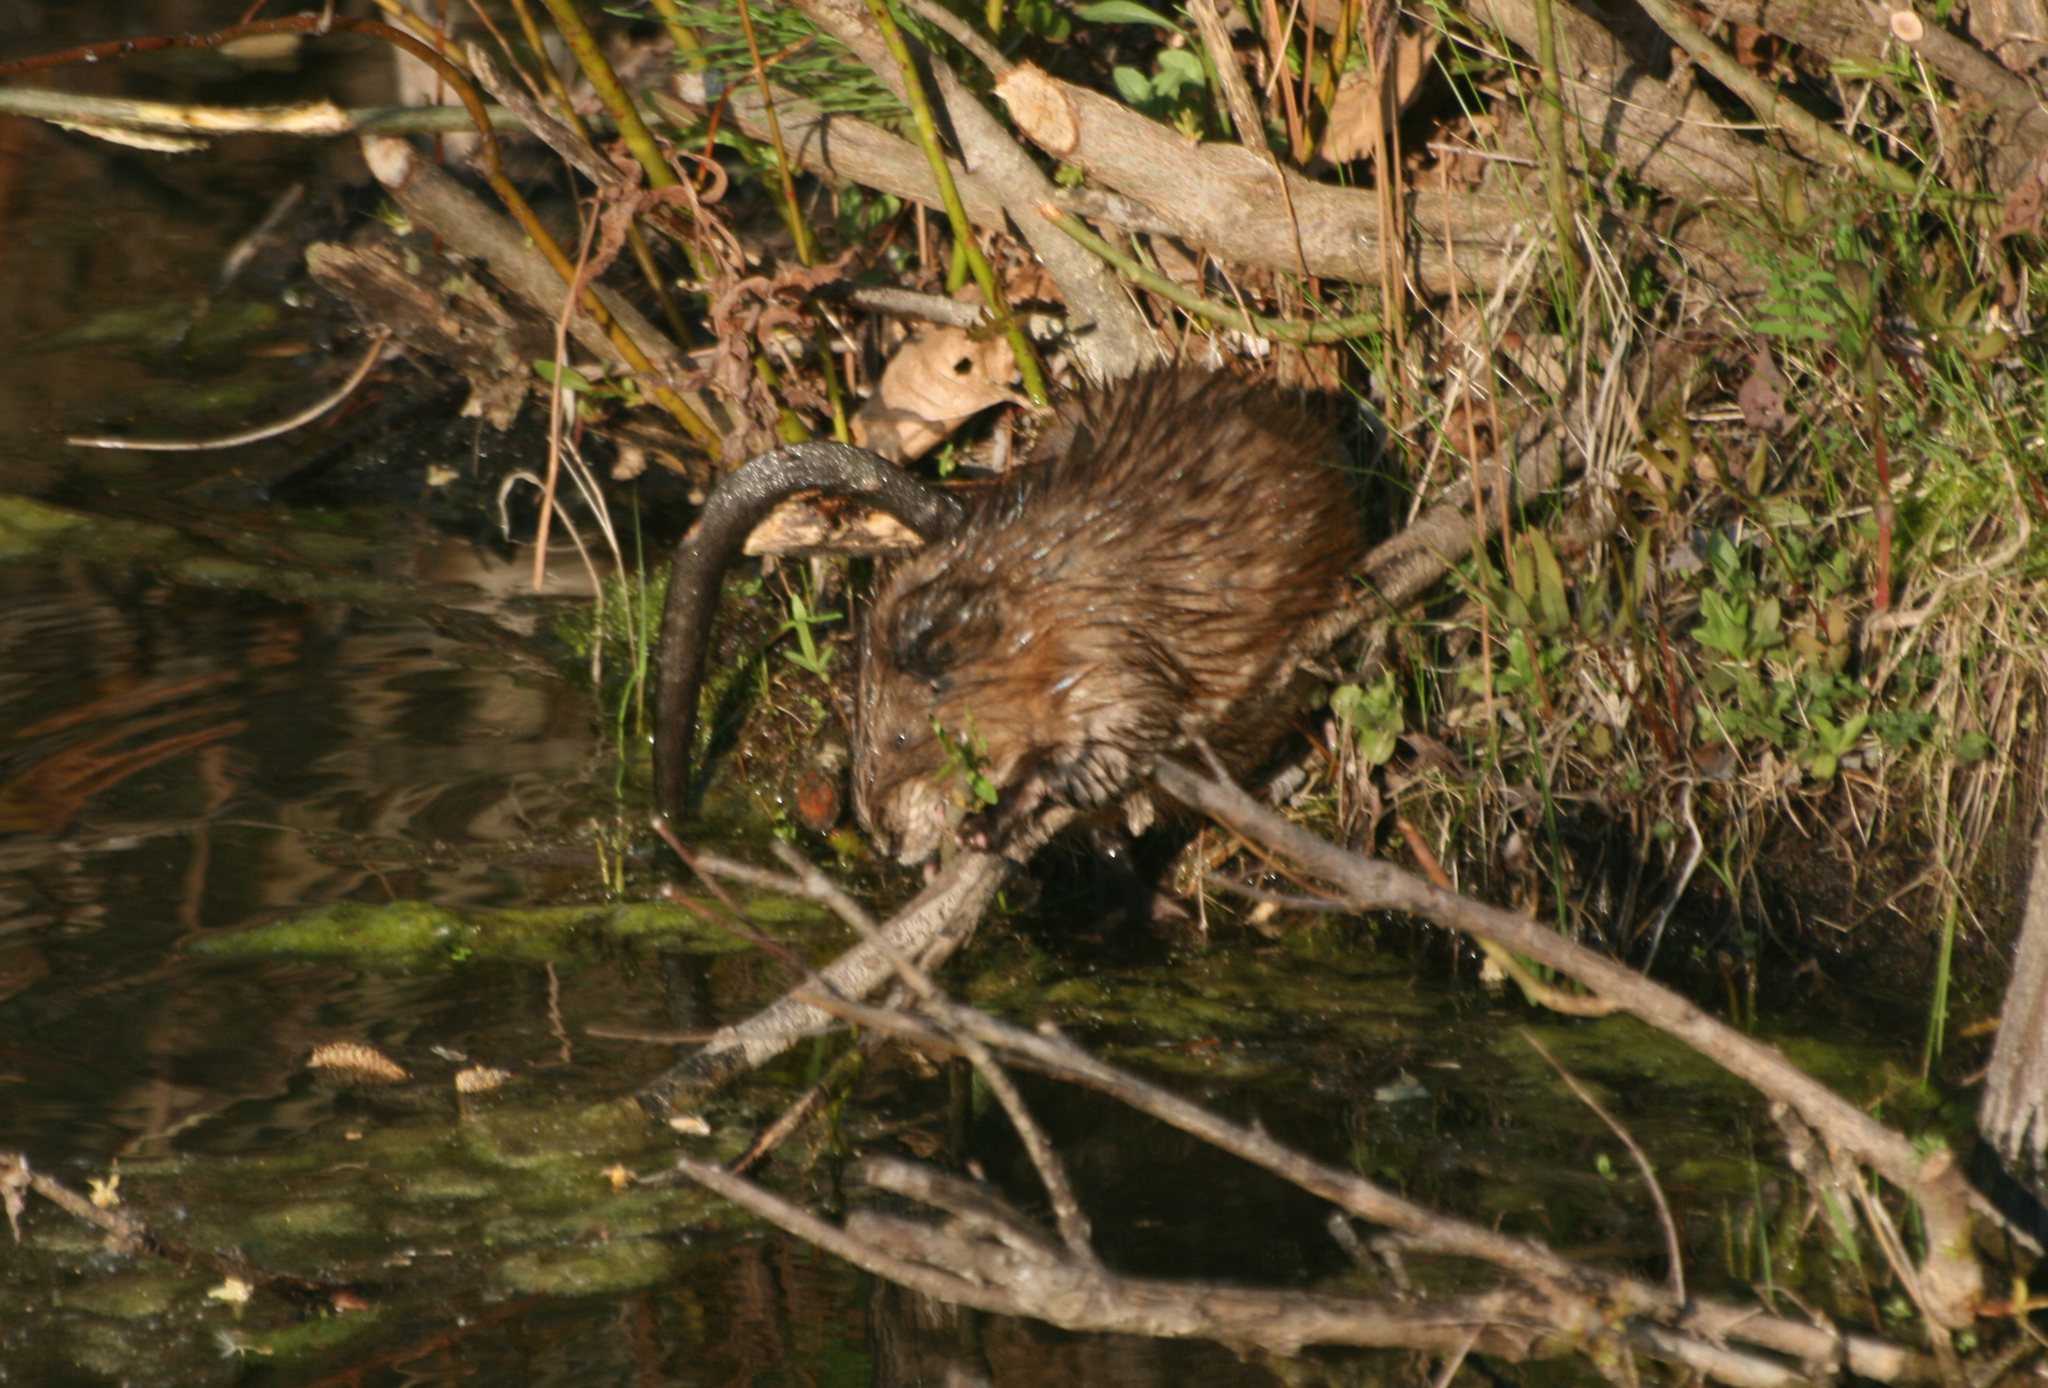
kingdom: Animalia
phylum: Chordata
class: Mammalia
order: Rodentia
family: Cricetidae
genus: Ondatra
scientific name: Ondatra zibethicus
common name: Muskrat
